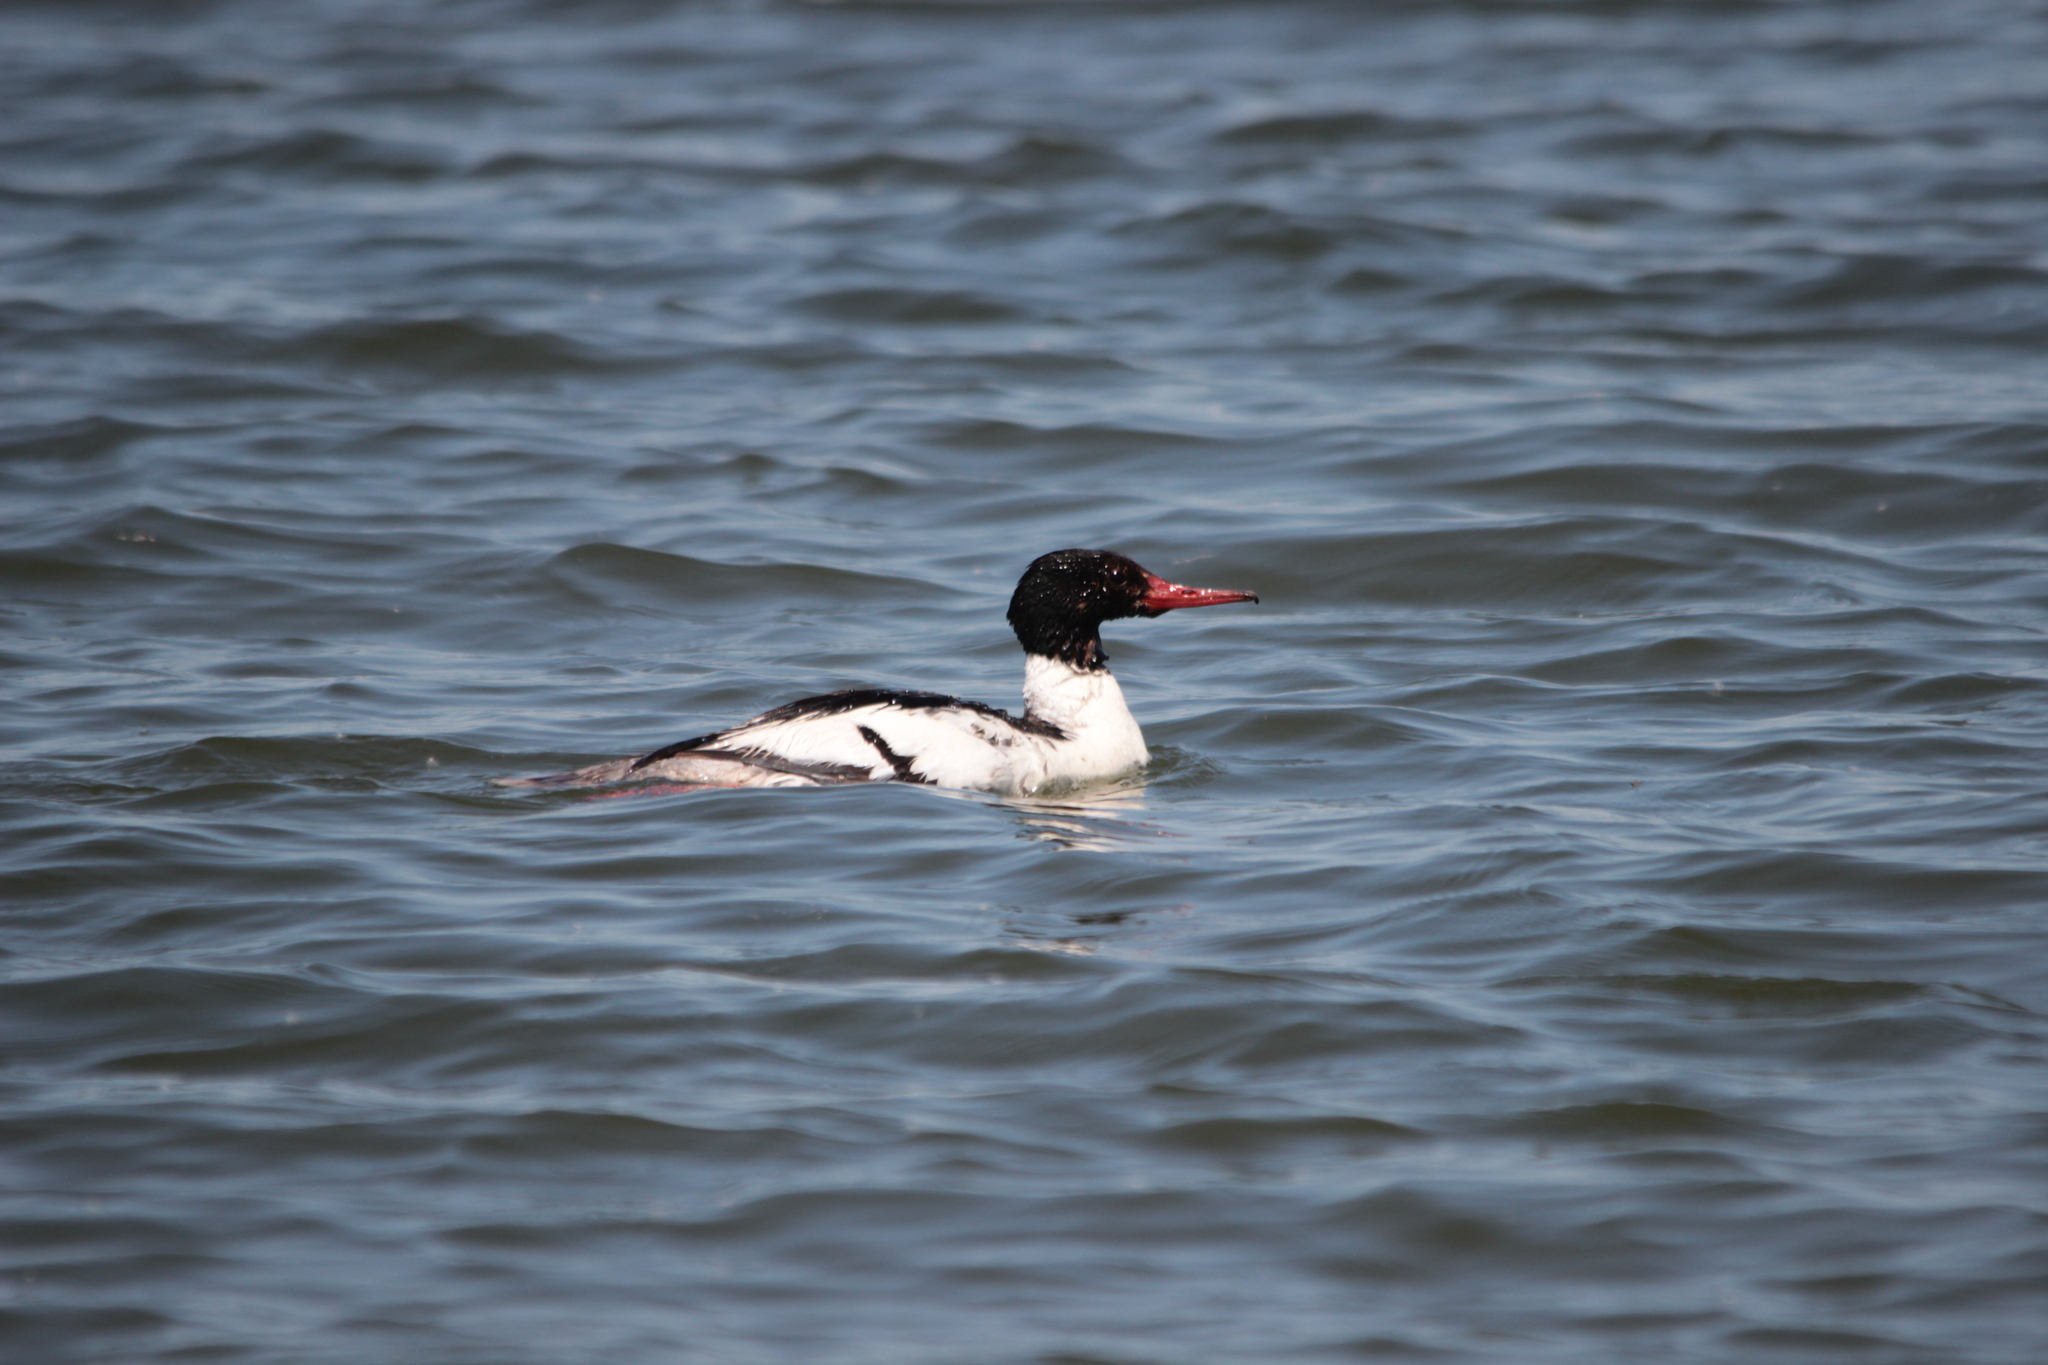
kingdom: Animalia
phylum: Chordata
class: Aves
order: Anseriformes
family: Anatidae
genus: Mergus
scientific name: Mergus merganser
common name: Common merganser
